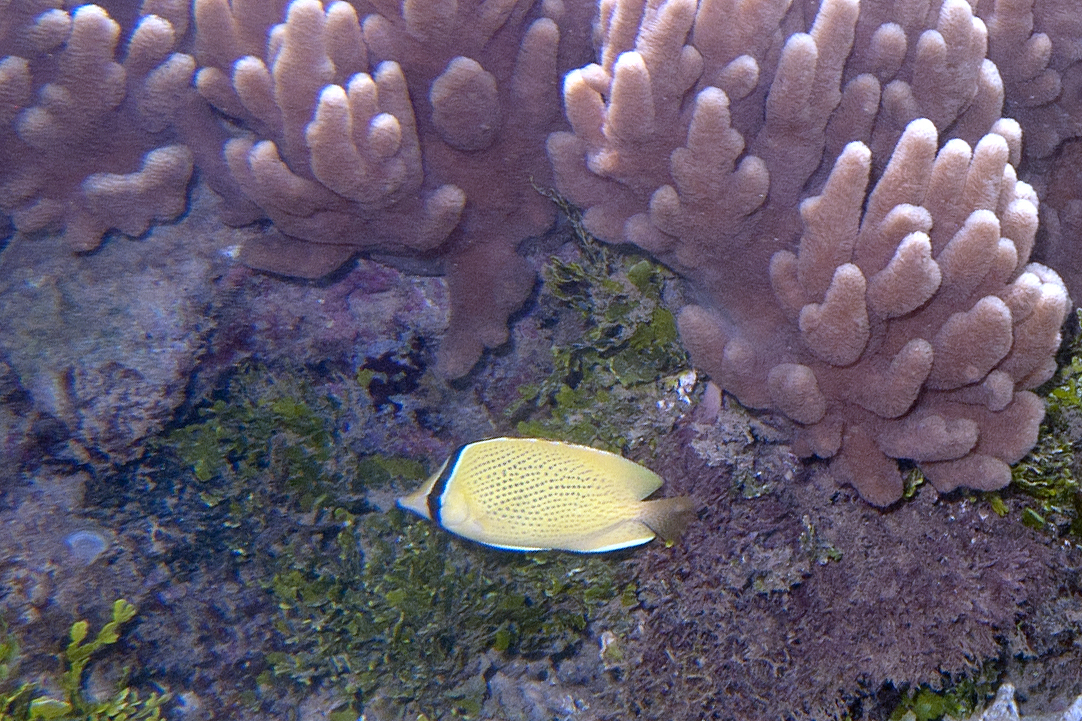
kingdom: Animalia
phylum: Chordata
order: Perciformes
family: Chaetodontidae
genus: Chaetodon
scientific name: Chaetodon citrinellus
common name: Speckled butterflyfish
